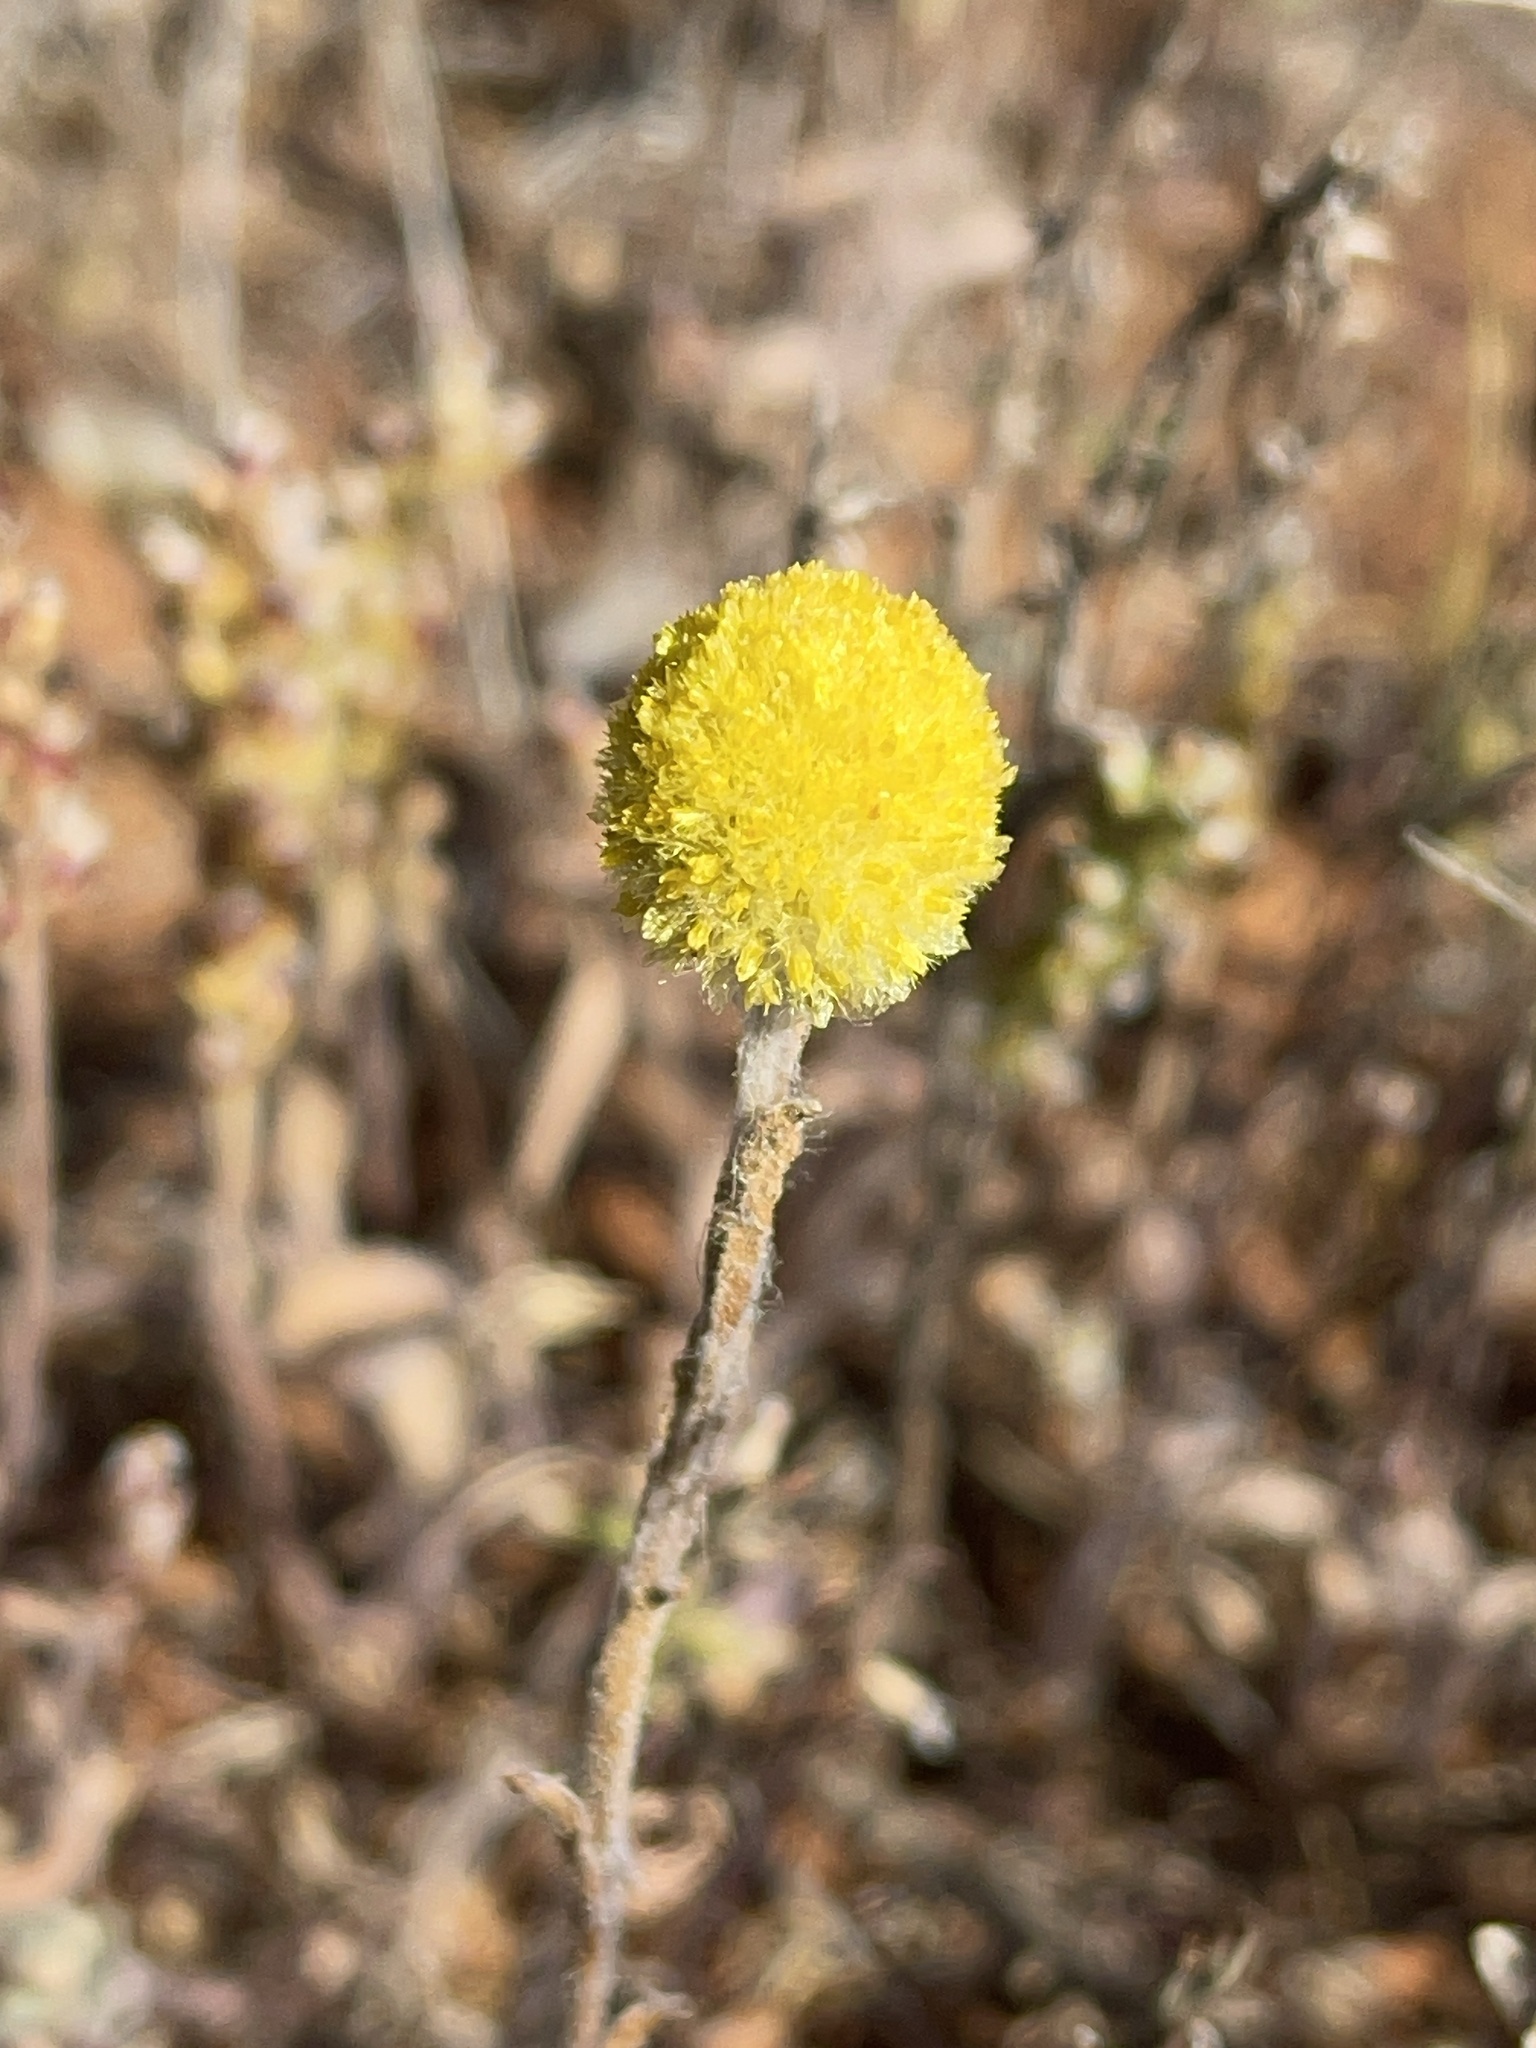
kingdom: Plantae
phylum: Tracheophyta
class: Magnoliopsida
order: Asterales
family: Asteraceae
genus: Pycnosorus
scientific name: Pycnosorus pleiocephalus
